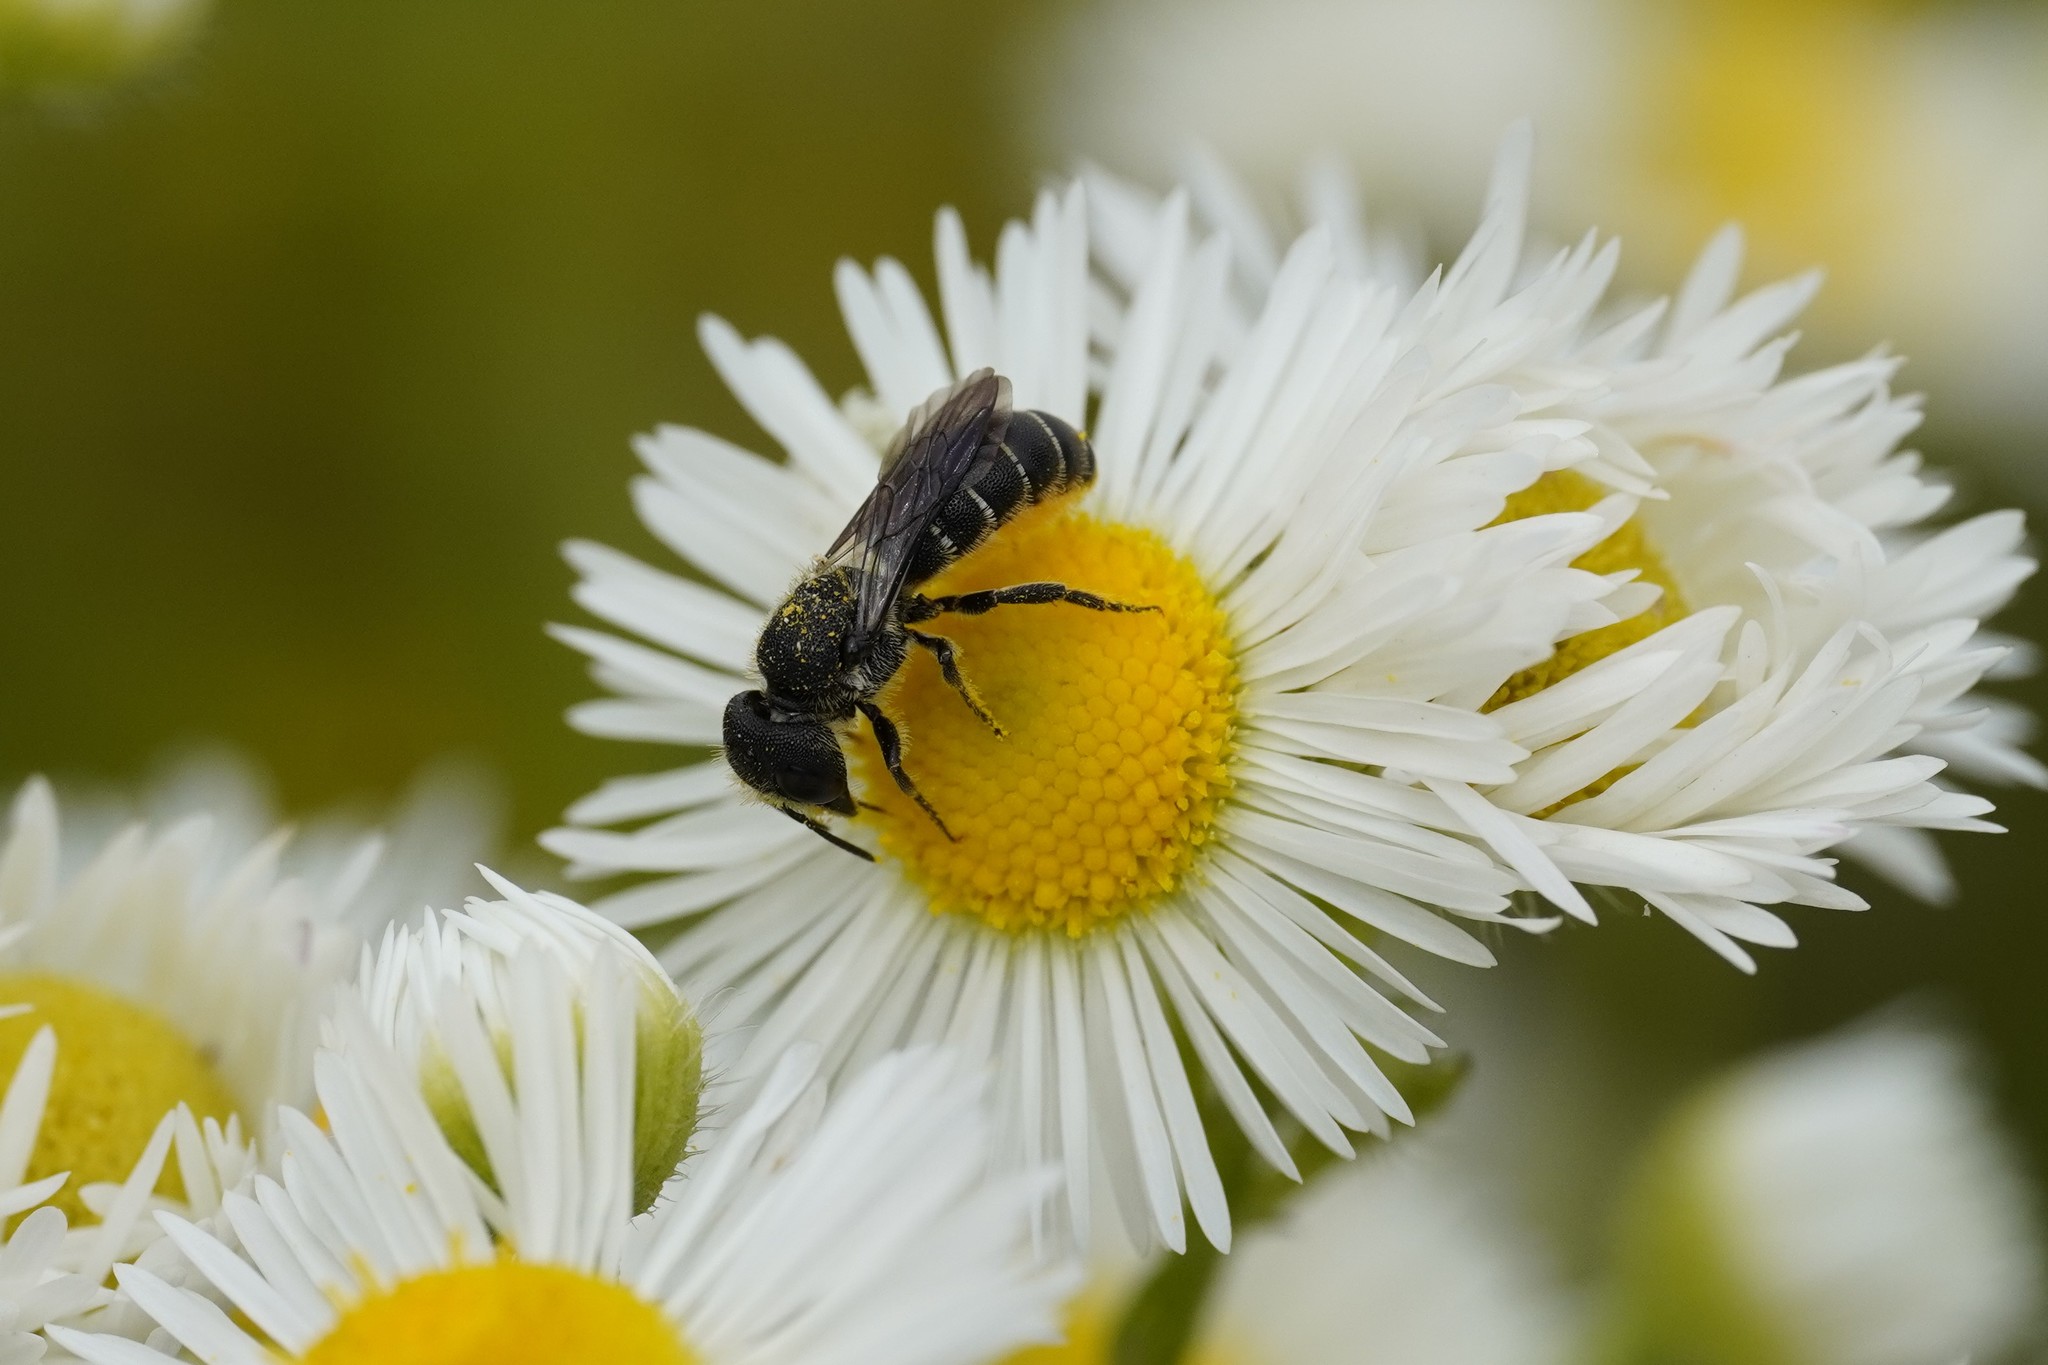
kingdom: Animalia
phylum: Arthropoda
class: Insecta
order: Hymenoptera
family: Megachilidae
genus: Heriades
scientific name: Heriades truncorum
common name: Ridge-saddled carpenter bee
